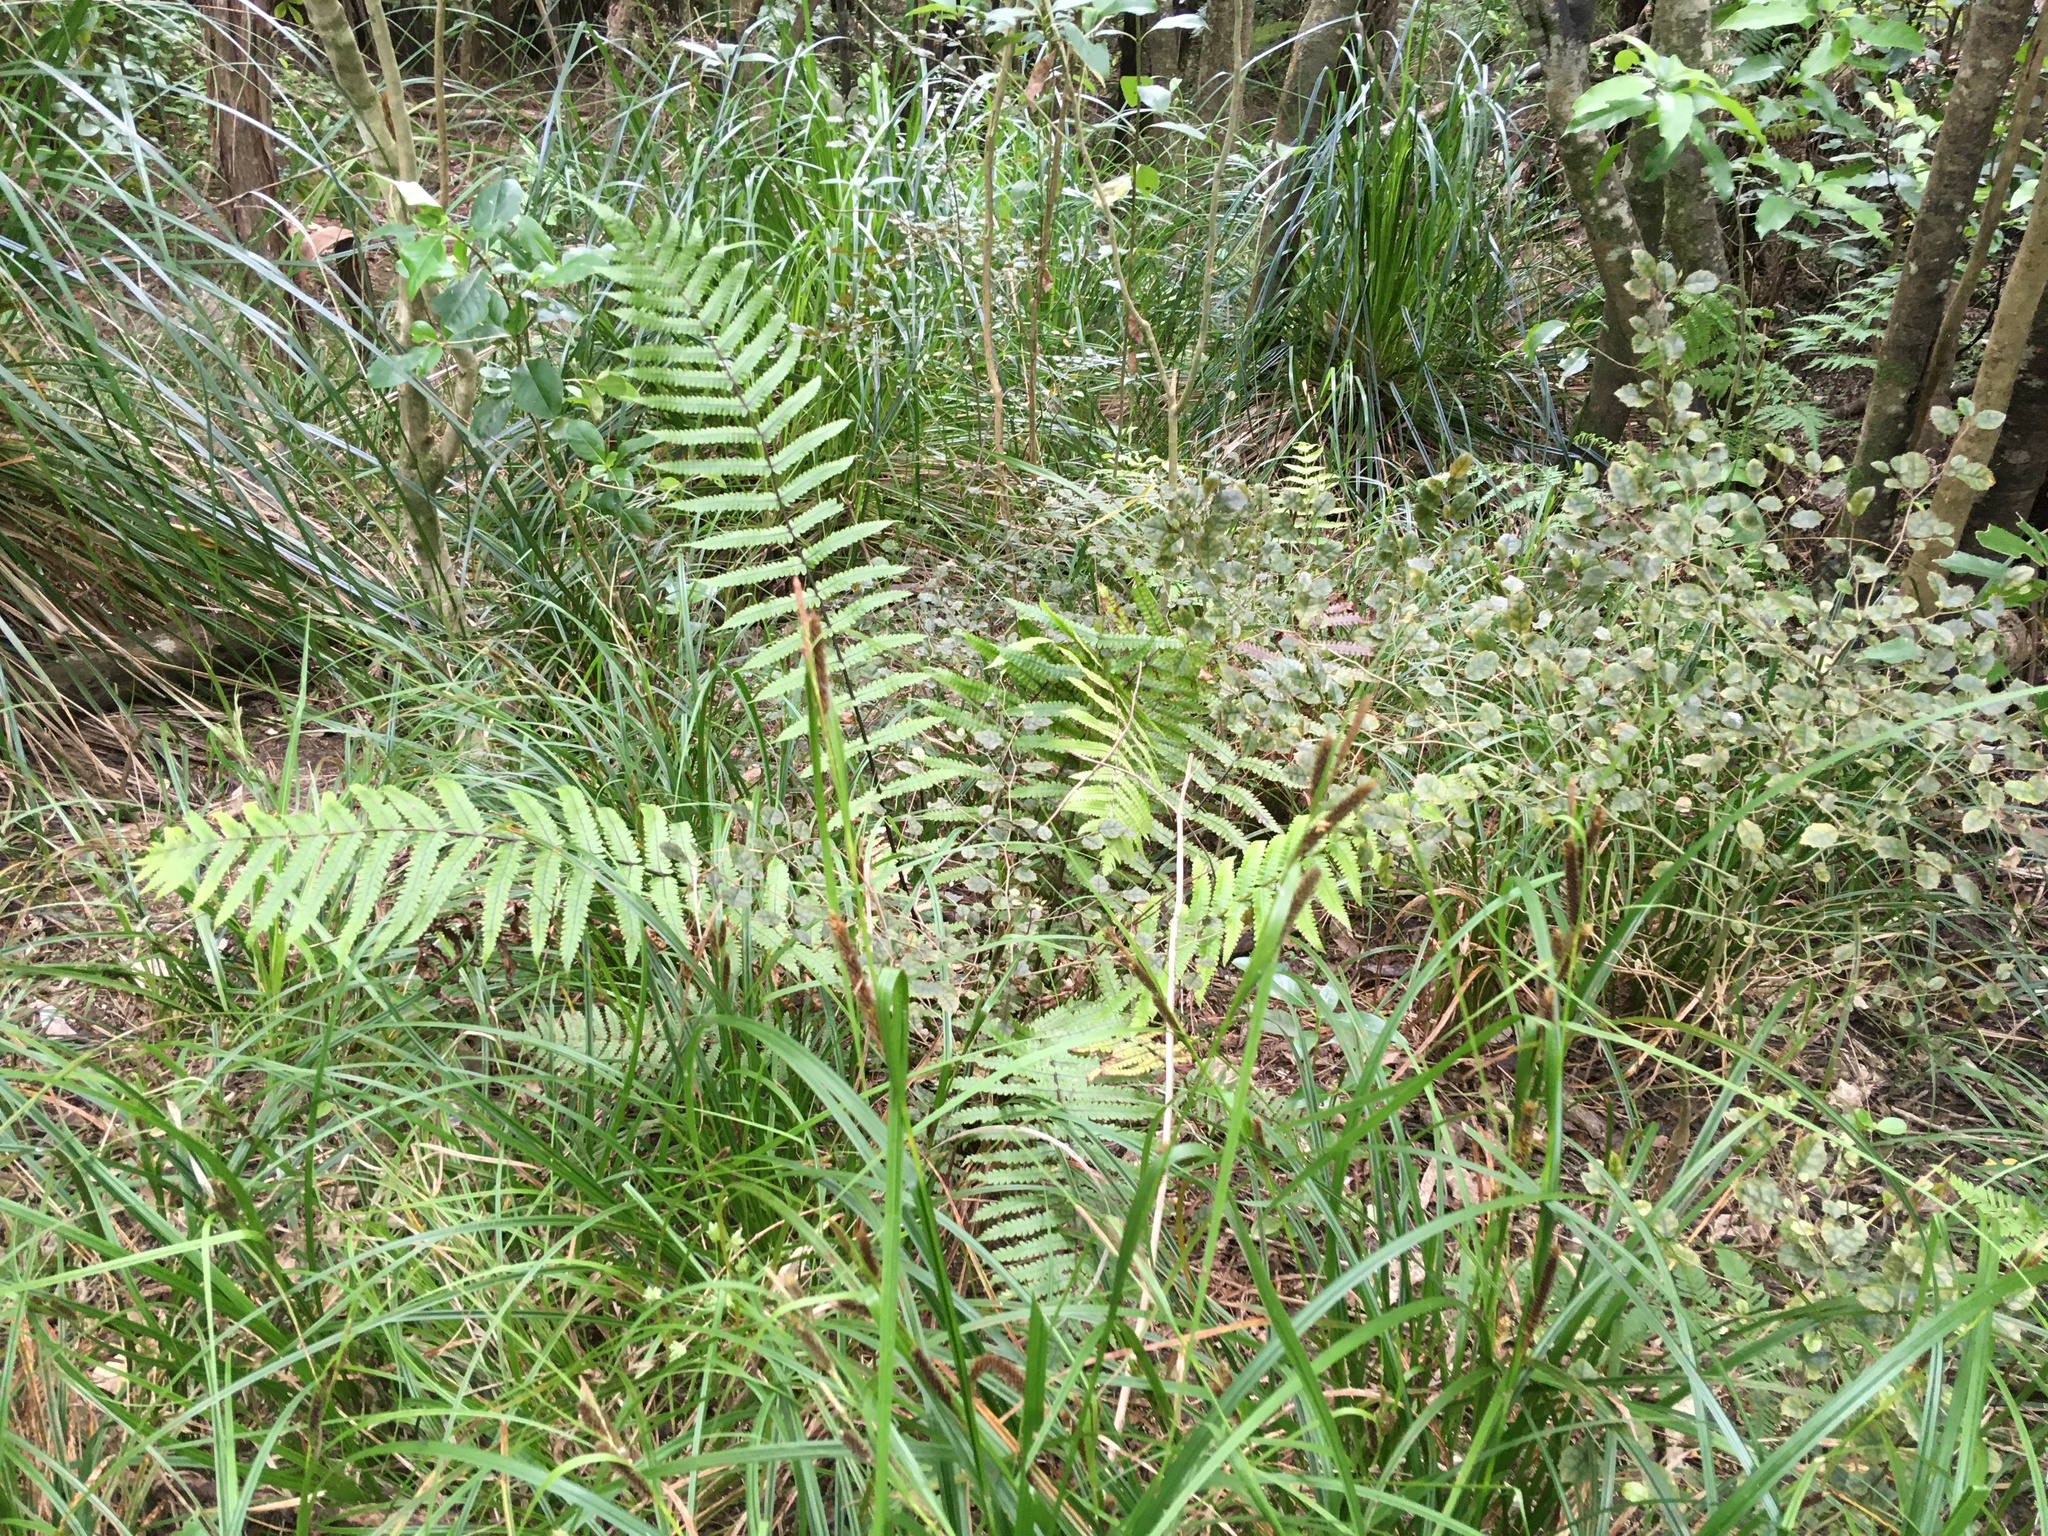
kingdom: Plantae
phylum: Tracheophyta
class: Polypodiopsida
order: Polypodiales
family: Thelypteridaceae
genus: Pakau
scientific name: Pakau pennigera
